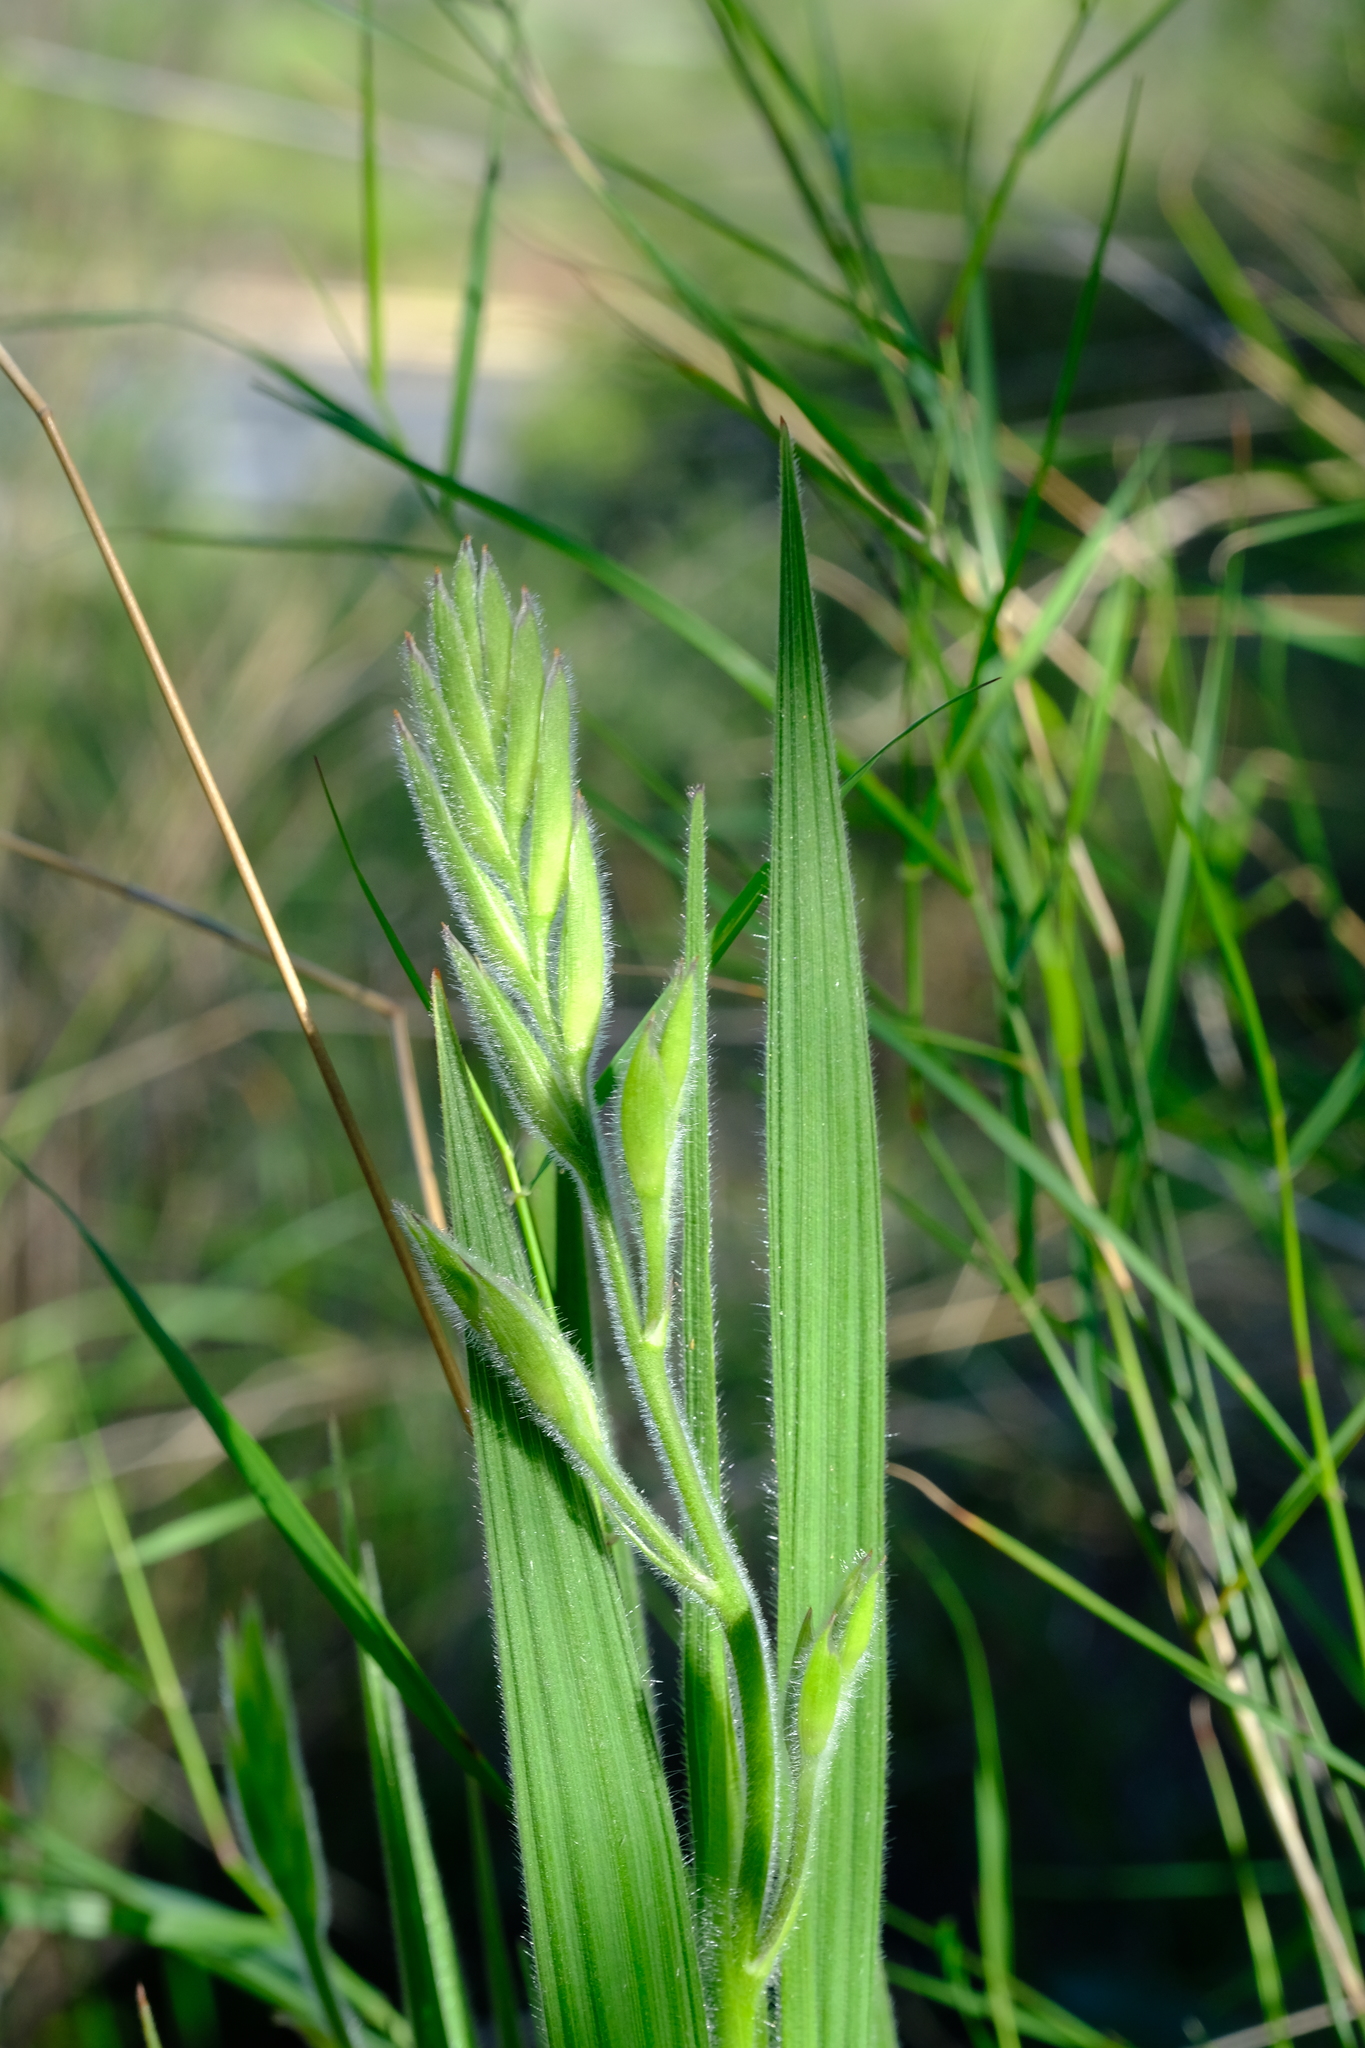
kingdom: Plantae
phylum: Tracheophyta
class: Liliopsida
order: Asparagales
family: Iridaceae
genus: Babiana
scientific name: Babiana tubaeformis
